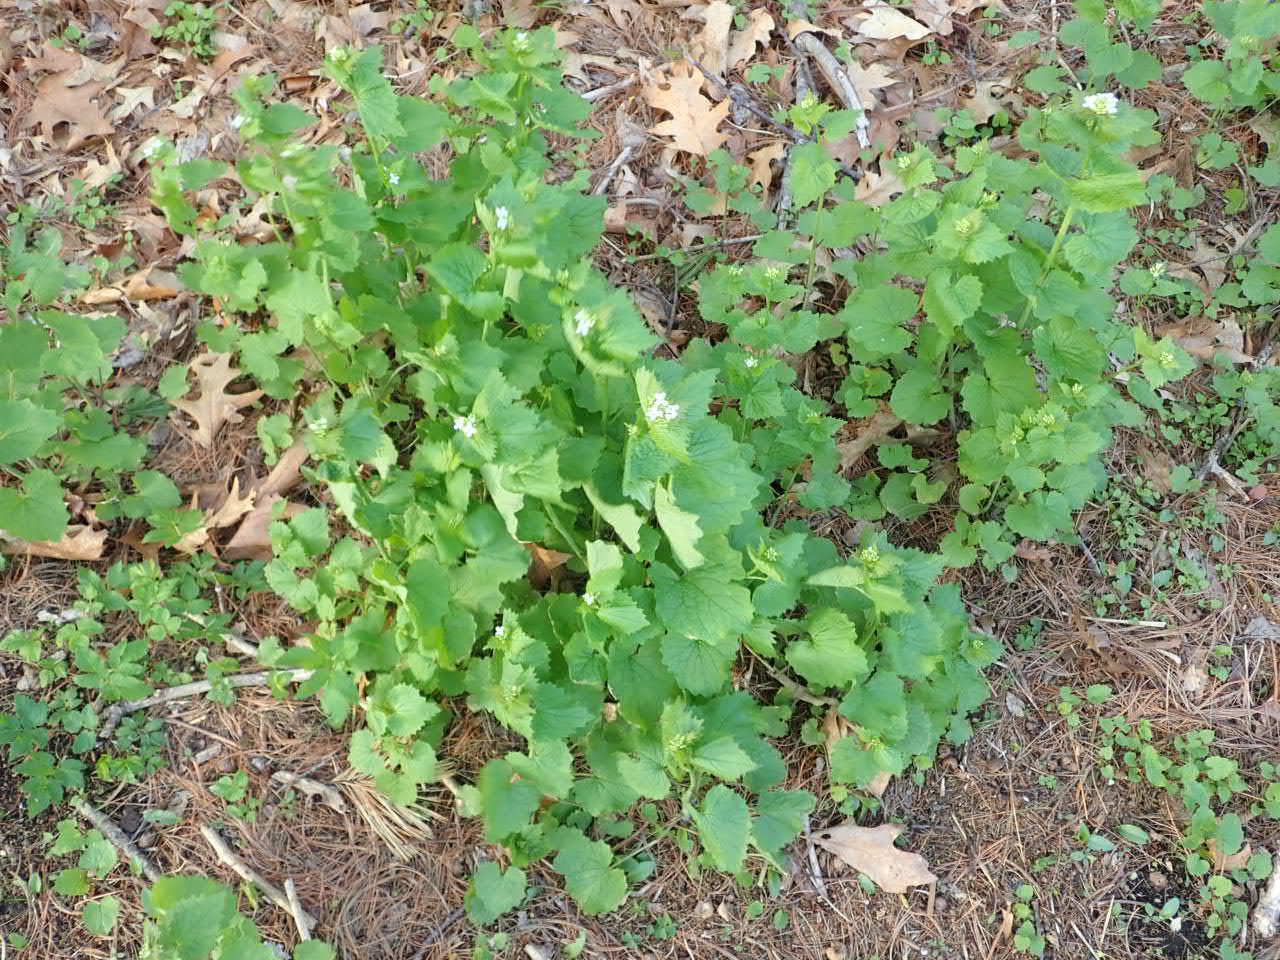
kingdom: Plantae
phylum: Tracheophyta
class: Magnoliopsida
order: Brassicales
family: Brassicaceae
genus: Alliaria
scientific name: Alliaria petiolata
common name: Garlic mustard
